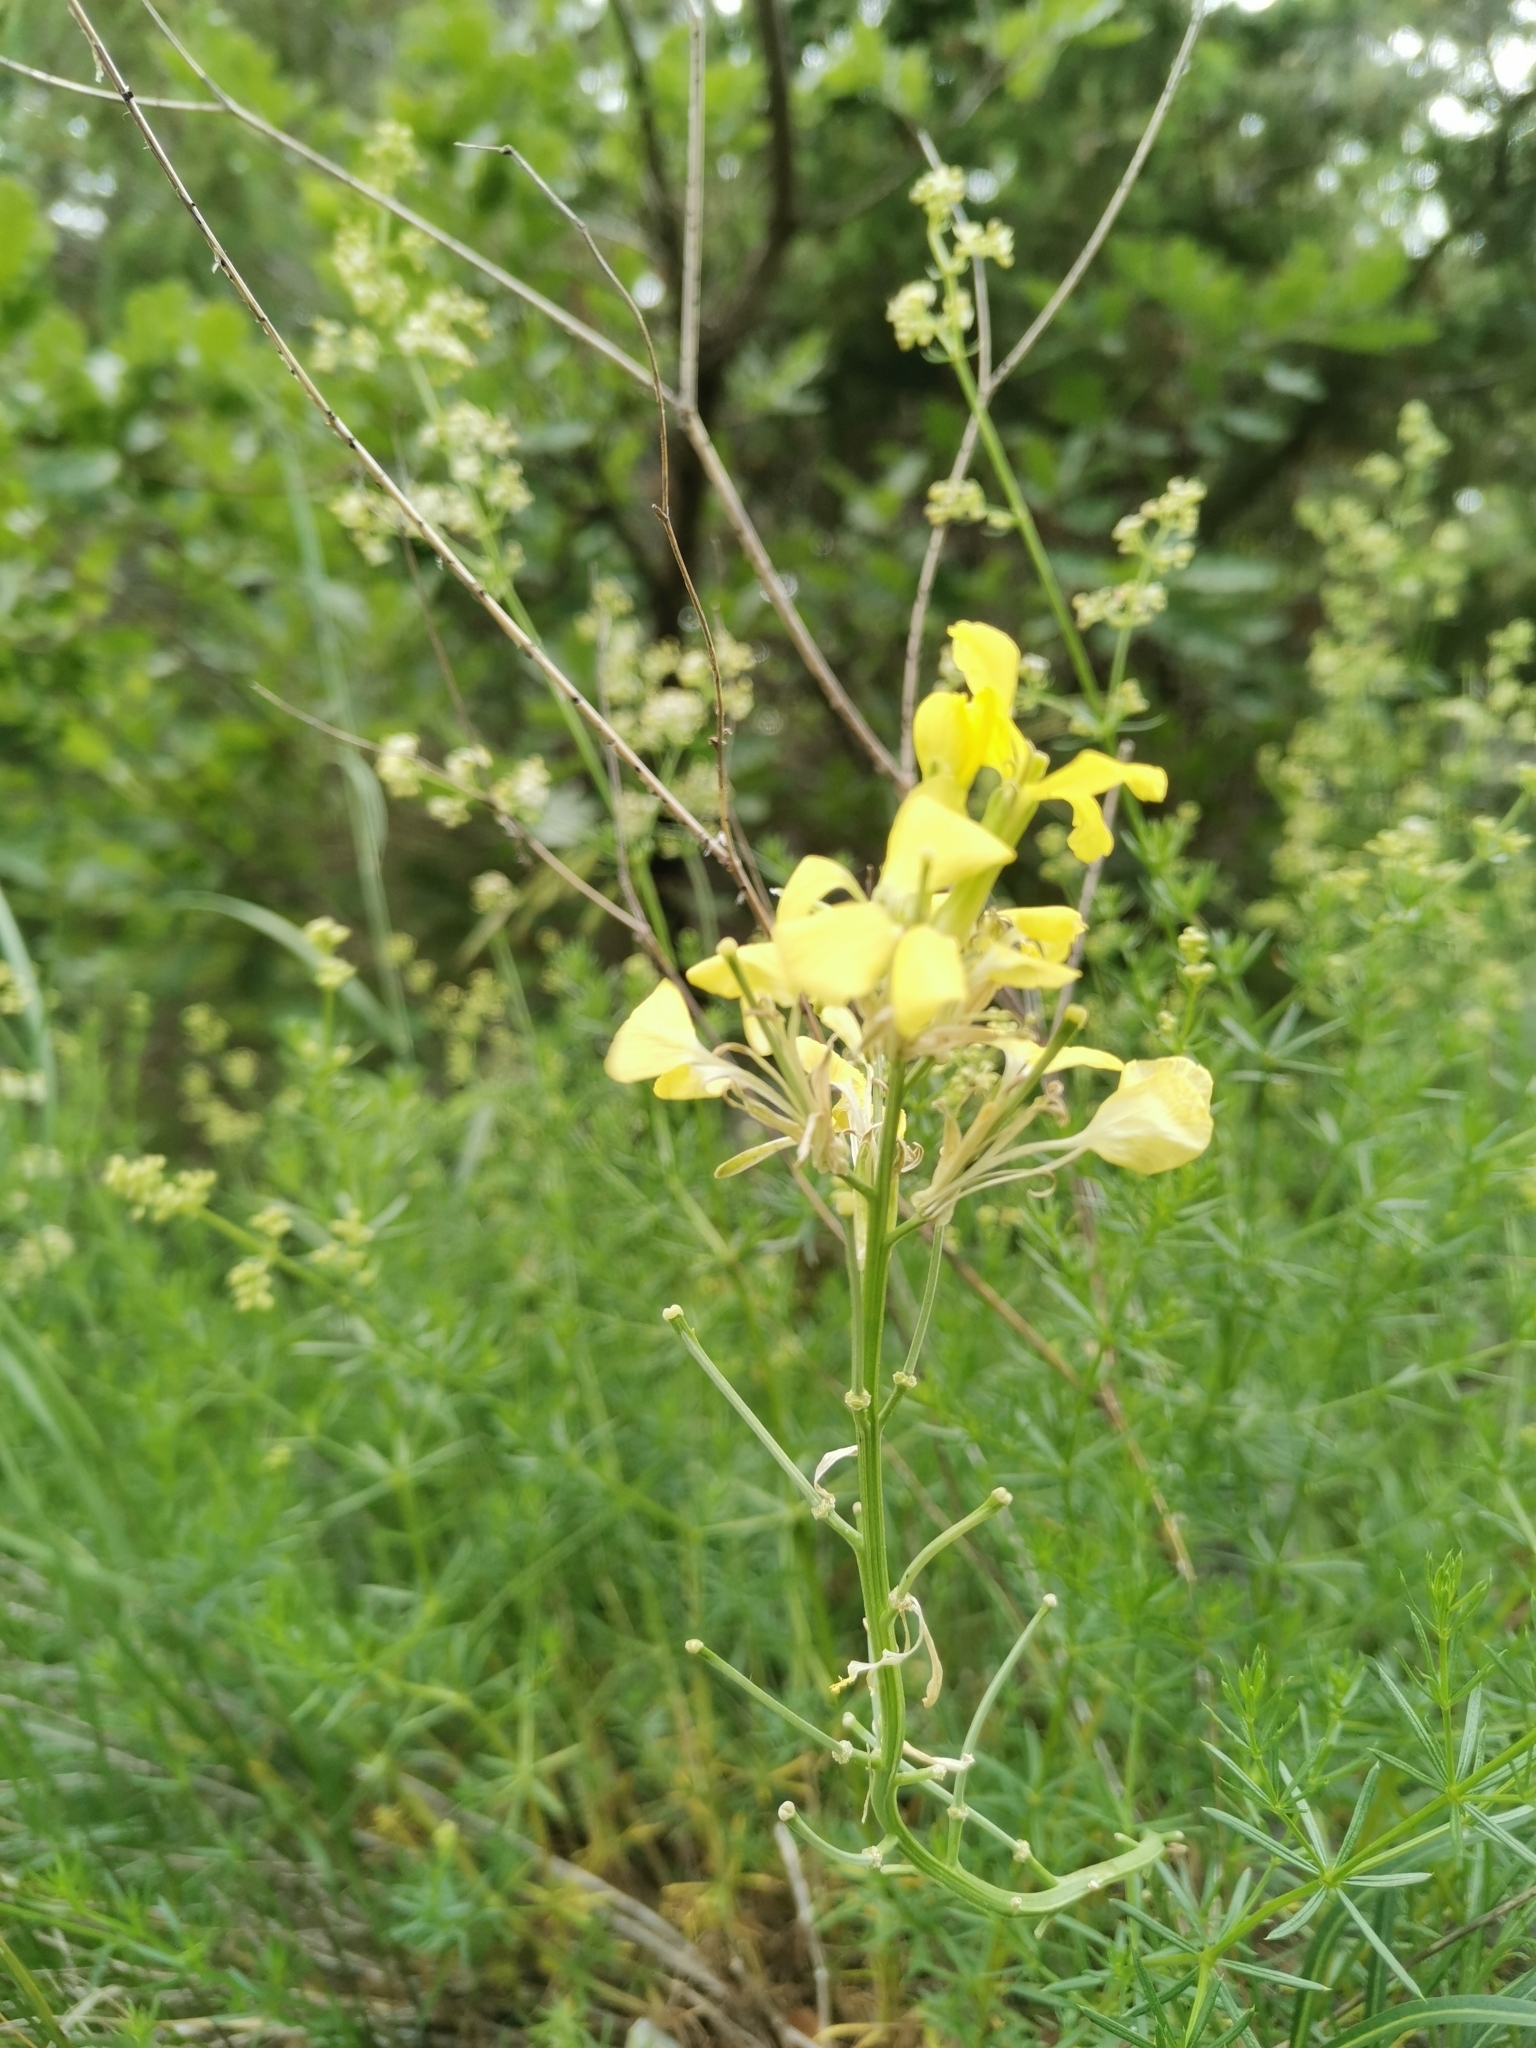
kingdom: Plantae
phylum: Tracheophyta
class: Magnoliopsida
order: Brassicales
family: Brassicaceae
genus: Erysimum
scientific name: Erysimum sylvestre
